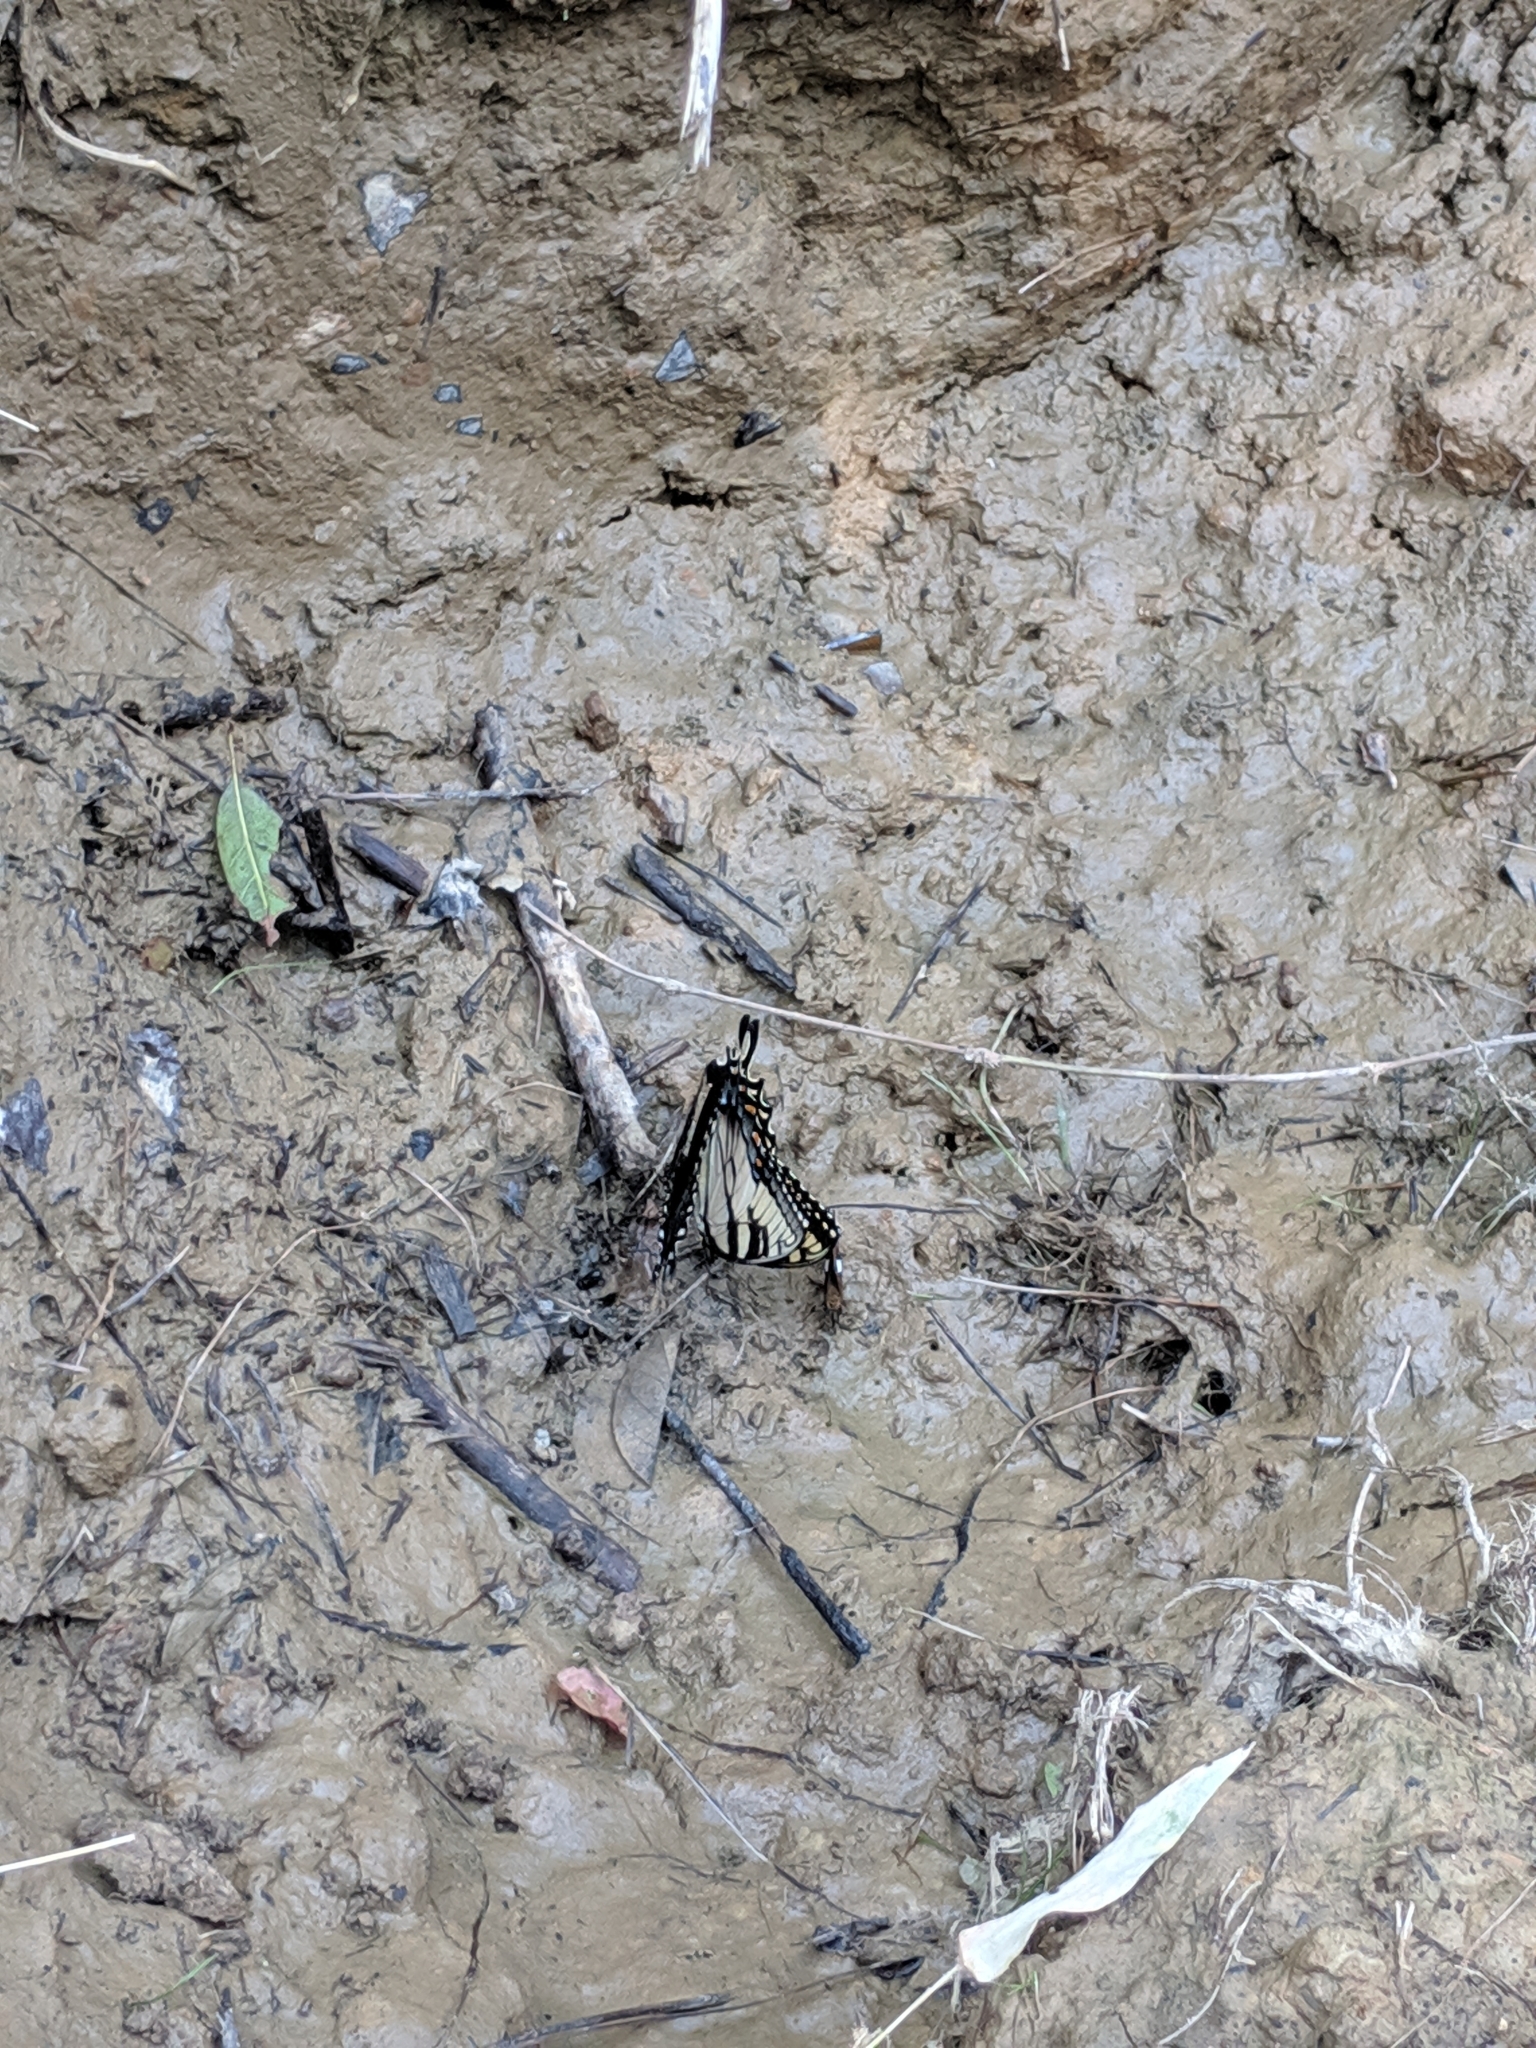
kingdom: Animalia
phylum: Arthropoda
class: Insecta
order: Lepidoptera
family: Papilionidae
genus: Papilio
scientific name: Papilio glaucus
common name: Tiger swallowtail
